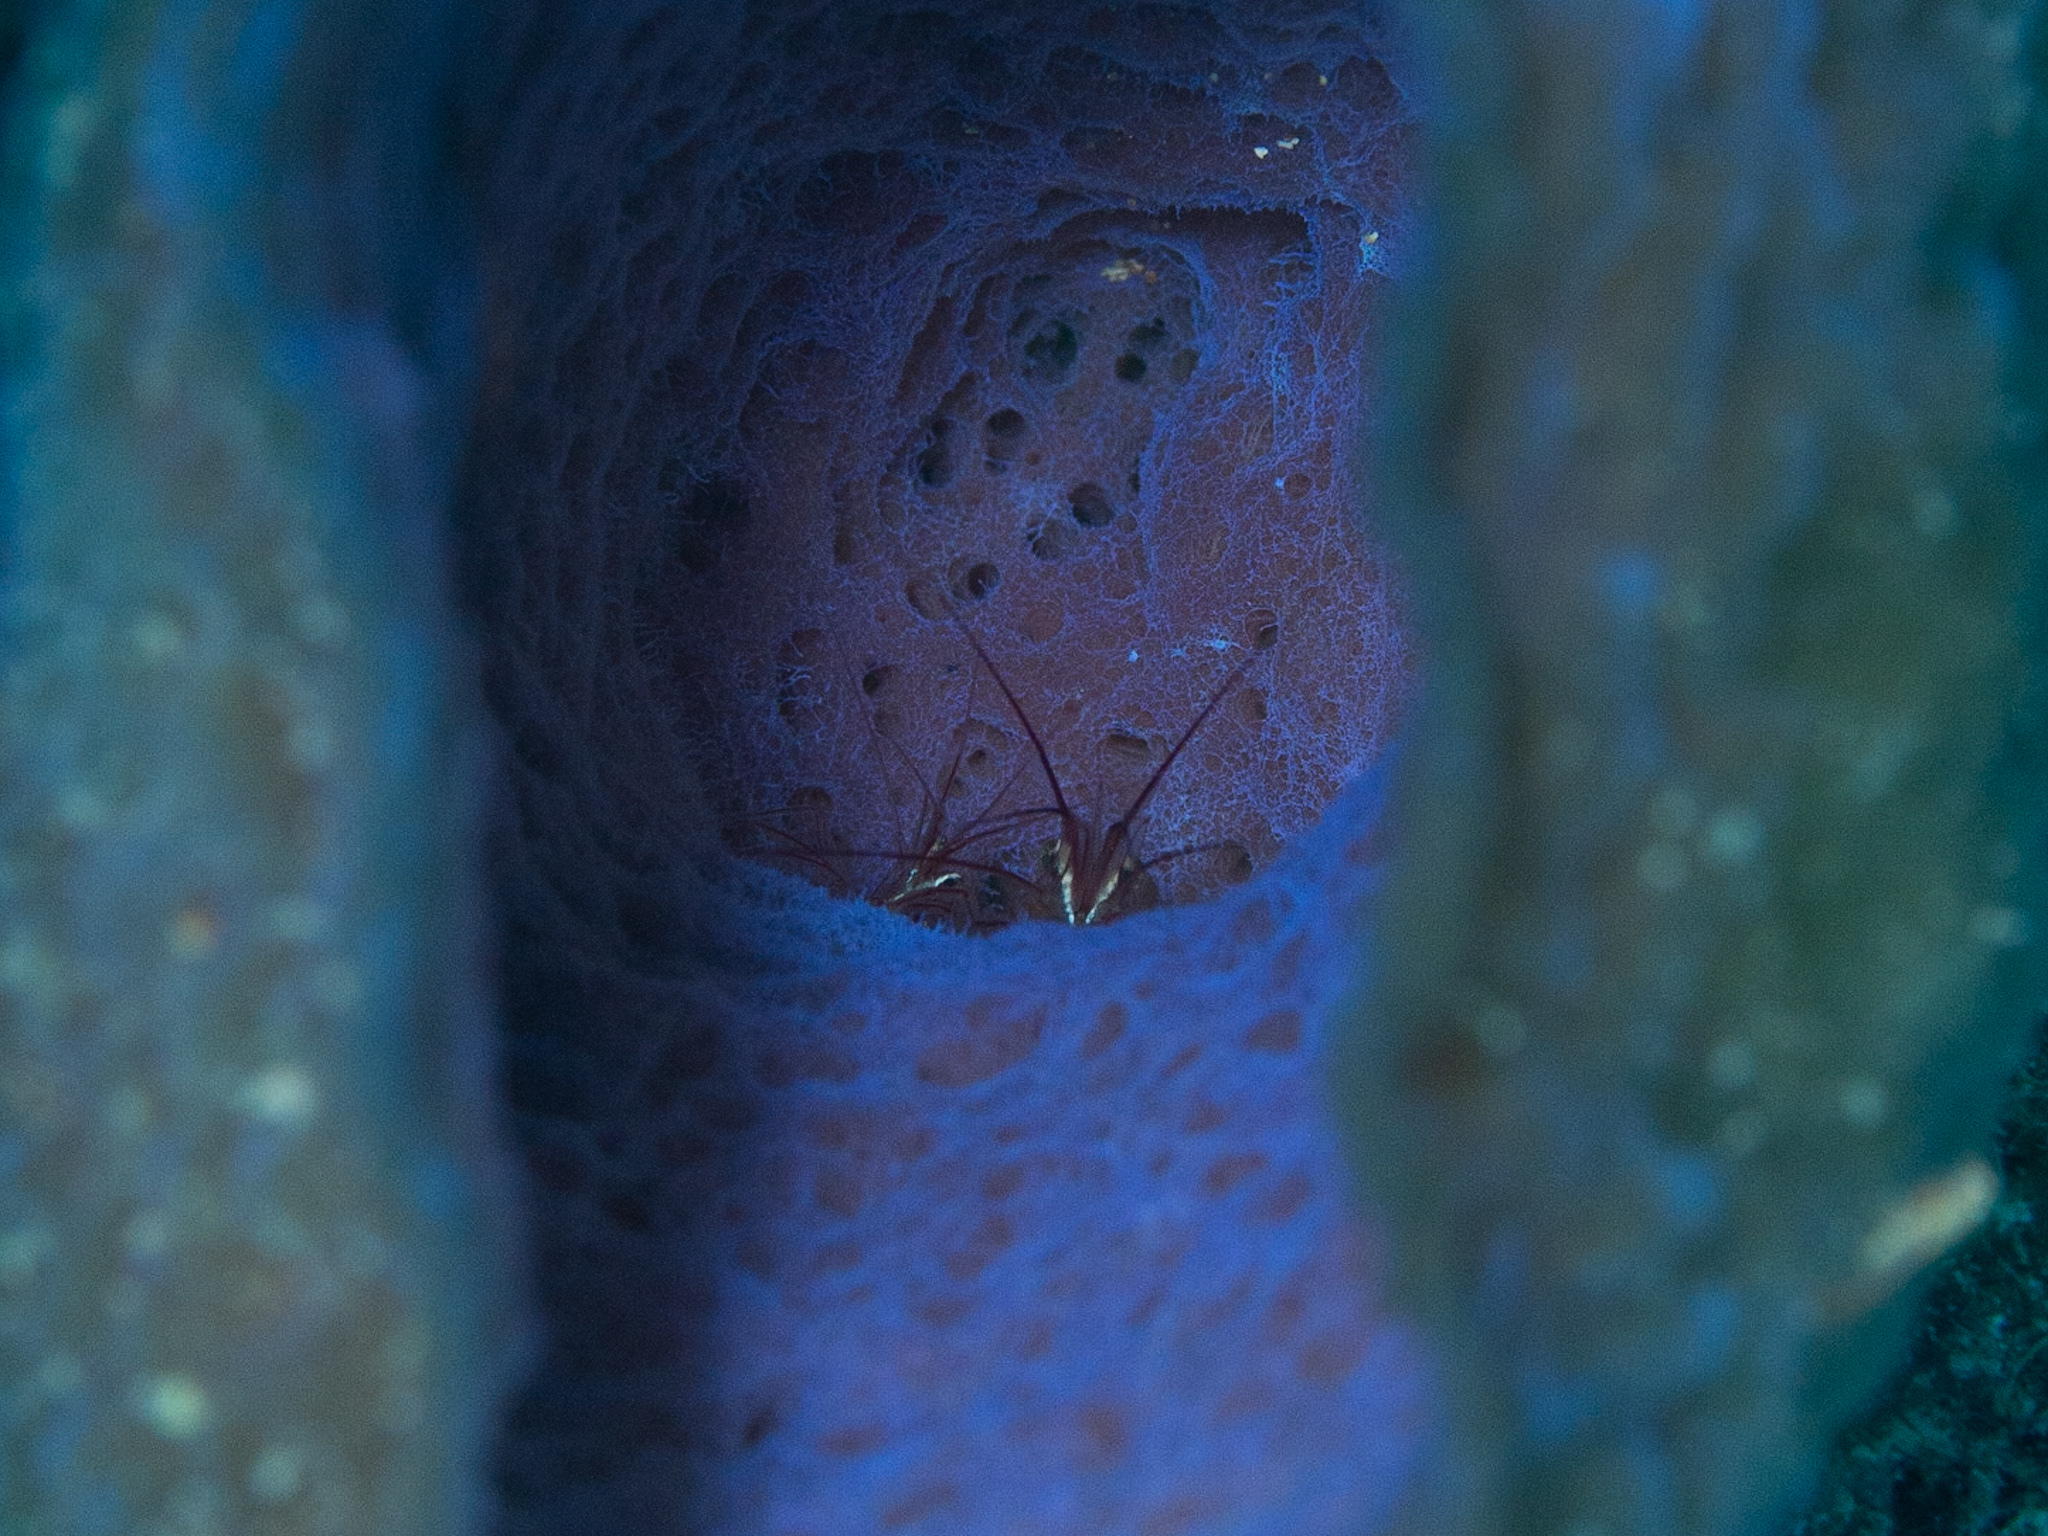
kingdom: Animalia
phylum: Arthropoda
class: Malacostraca
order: Decapoda
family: Lysmatidae
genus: Lysmata
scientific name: Lysmata pederseni
